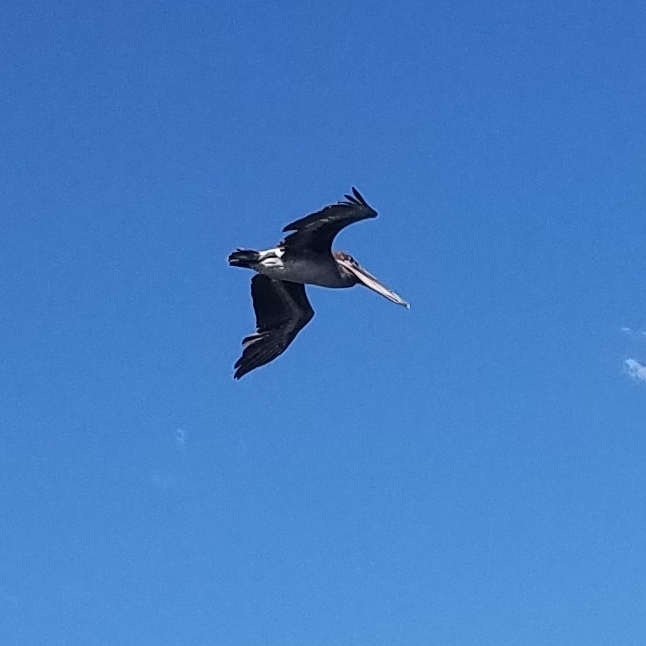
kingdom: Animalia
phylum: Chordata
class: Aves
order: Pelecaniformes
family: Pelecanidae
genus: Pelecanus
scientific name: Pelecanus occidentalis
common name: Brown pelican
